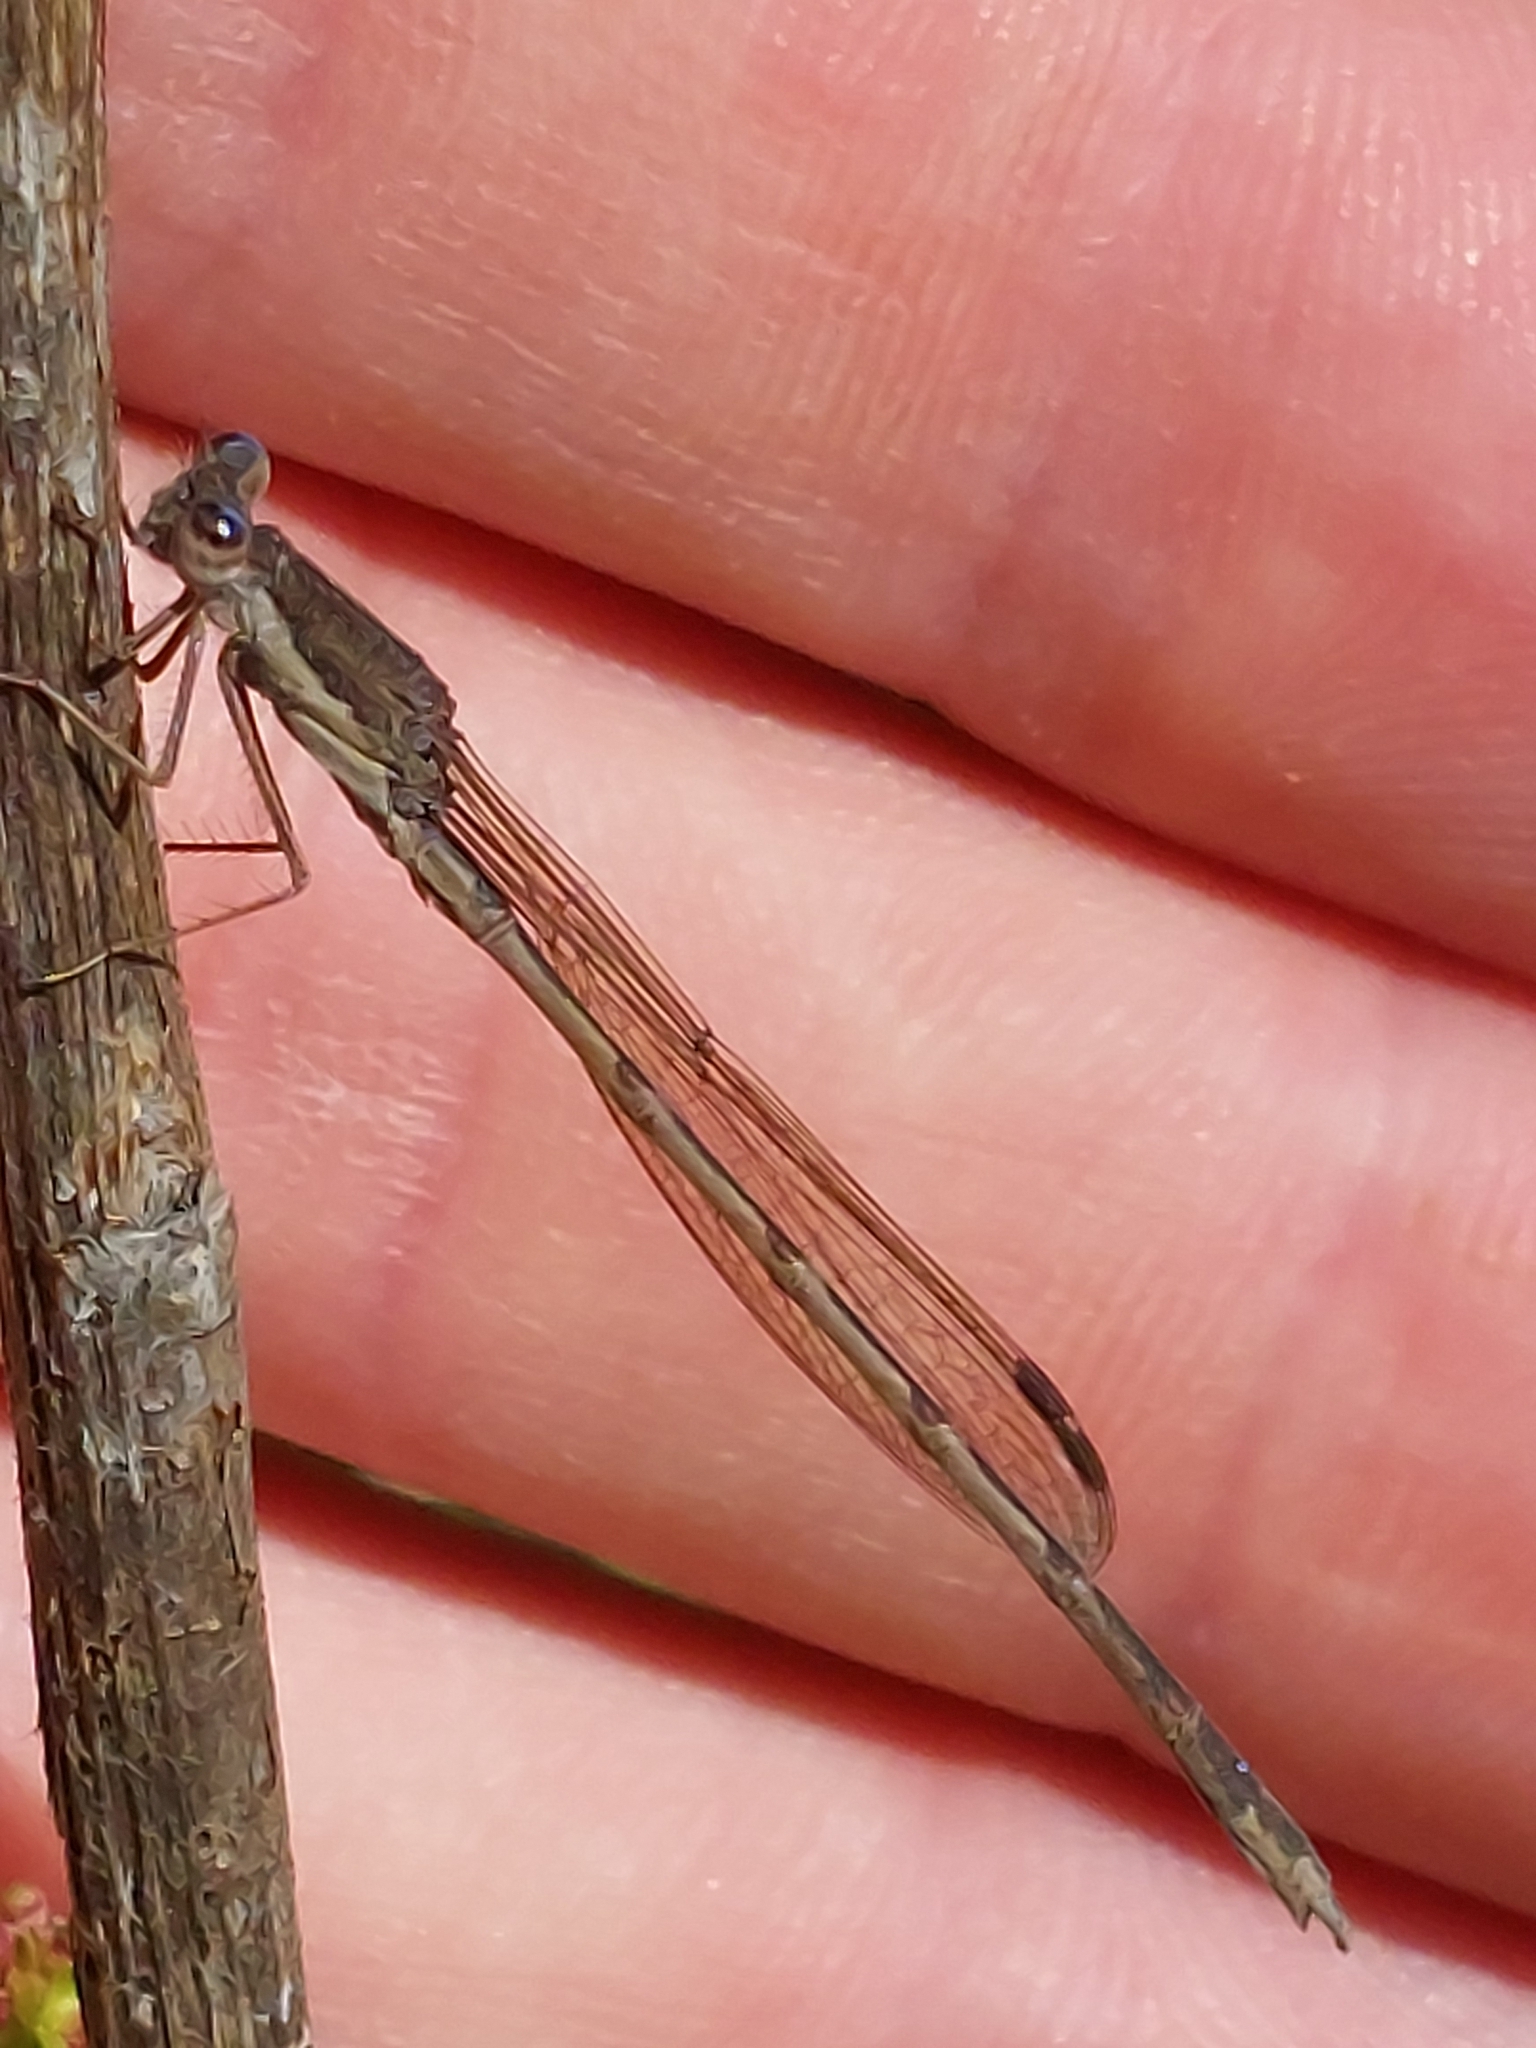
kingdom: Animalia
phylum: Arthropoda
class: Insecta
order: Odonata
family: Lestidae
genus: Sympecma
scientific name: Sympecma fusca
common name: Common winter damsel
